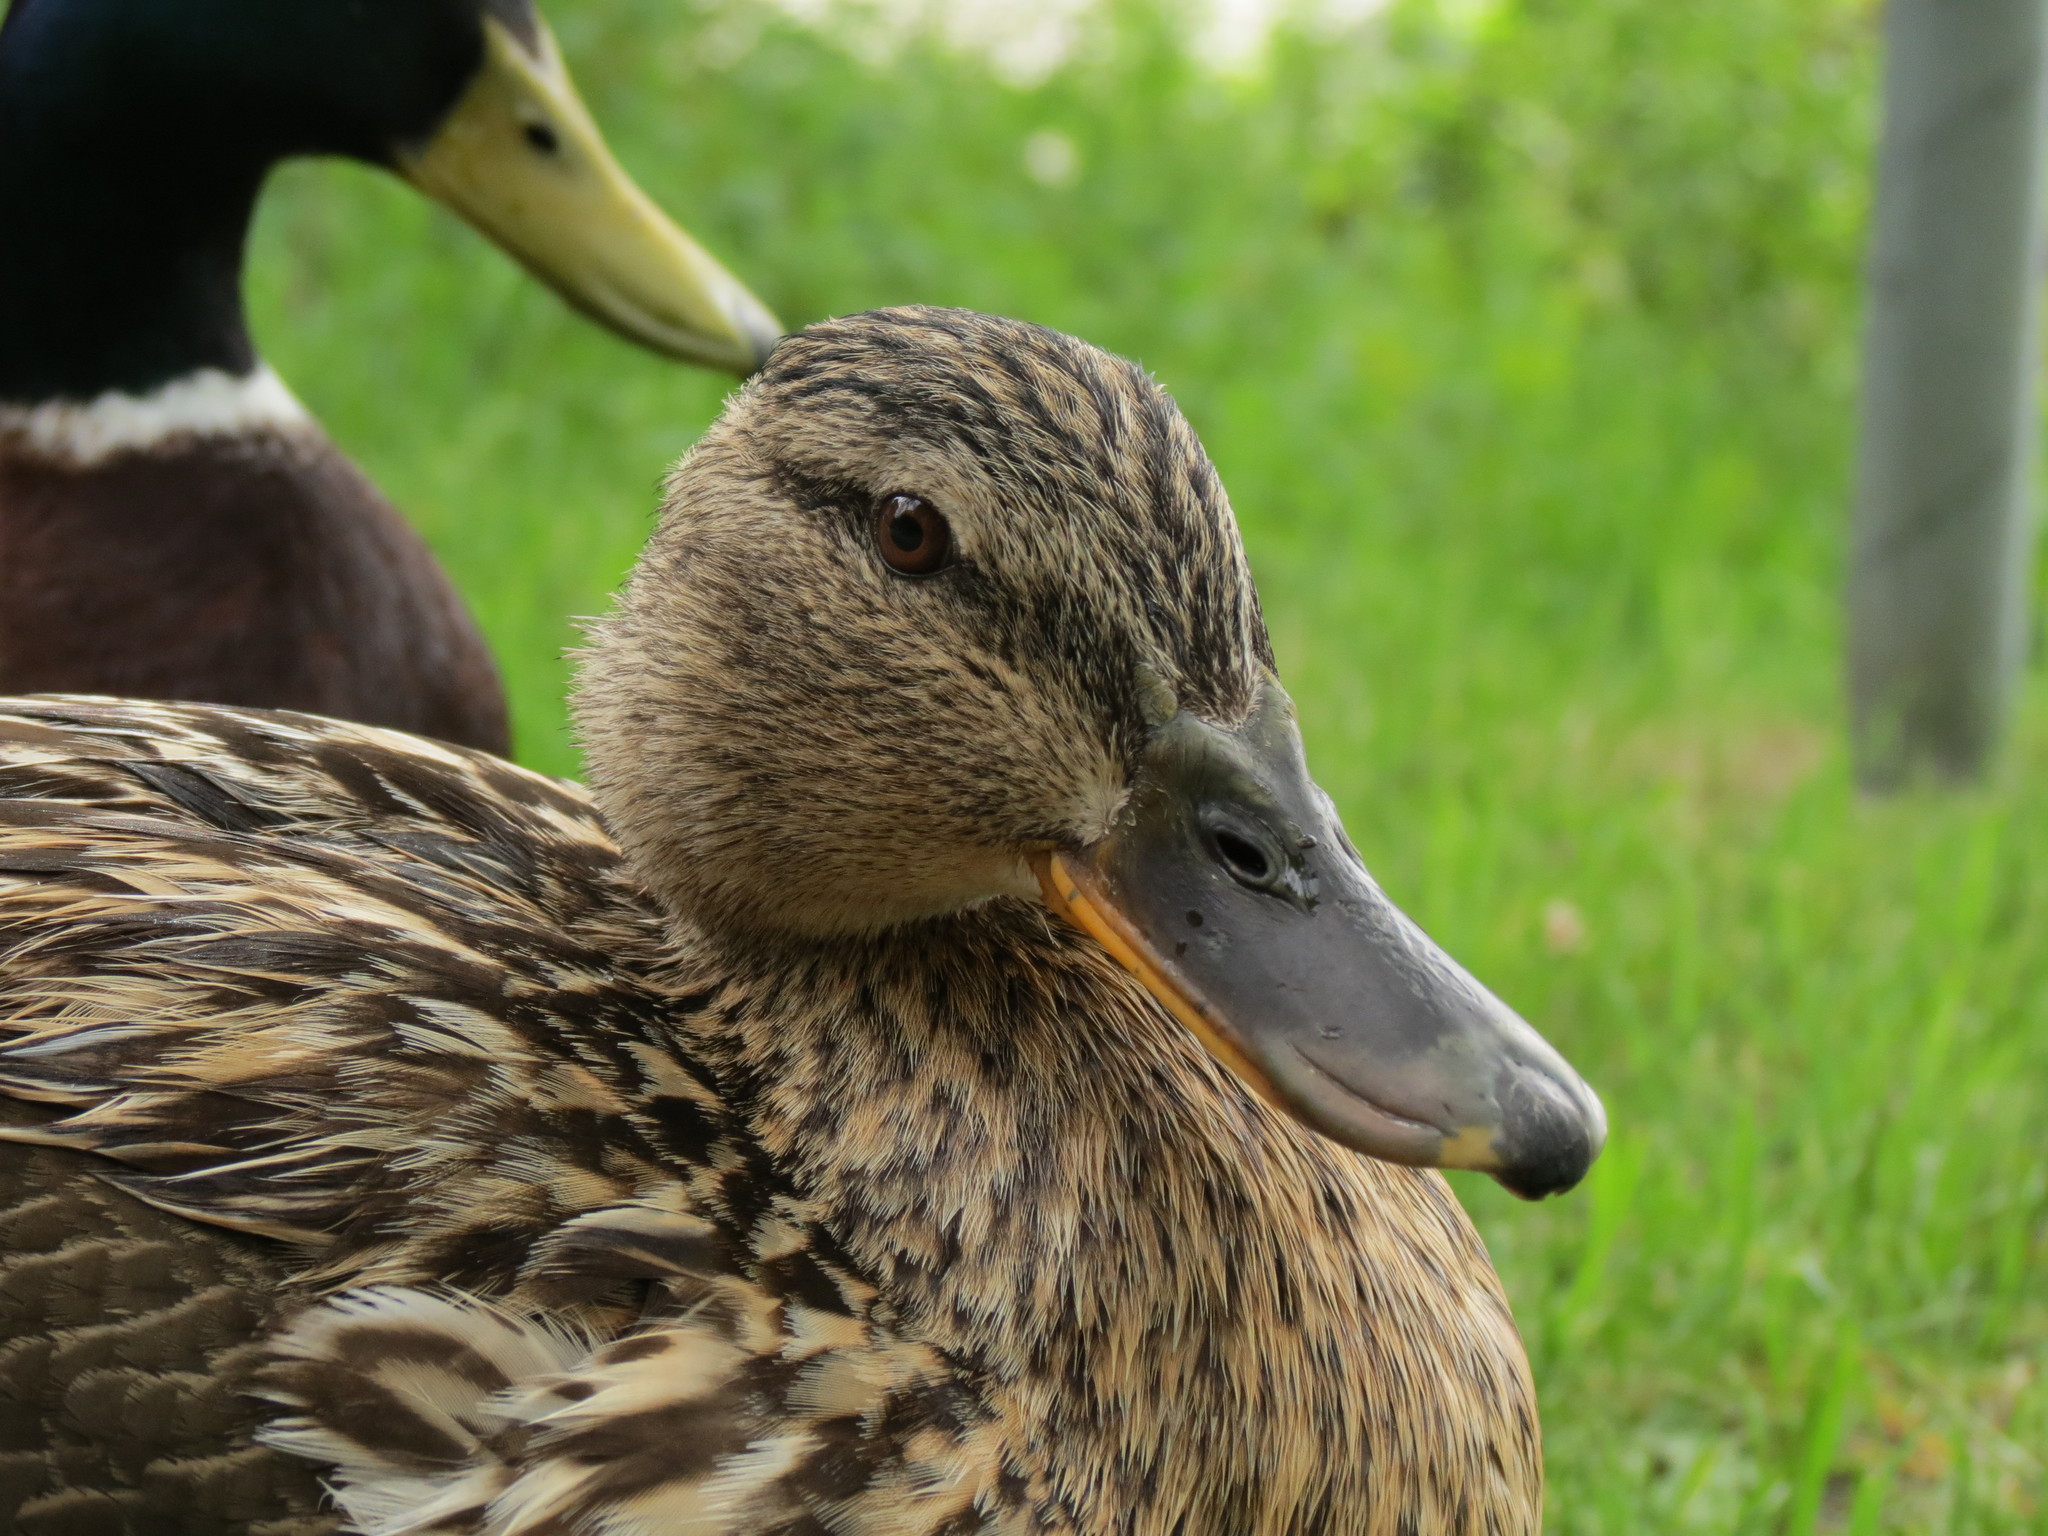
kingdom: Animalia
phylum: Chordata
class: Aves
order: Anseriformes
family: Anatidae
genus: Anas
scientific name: Anas platyrhynchos
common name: Mallard
